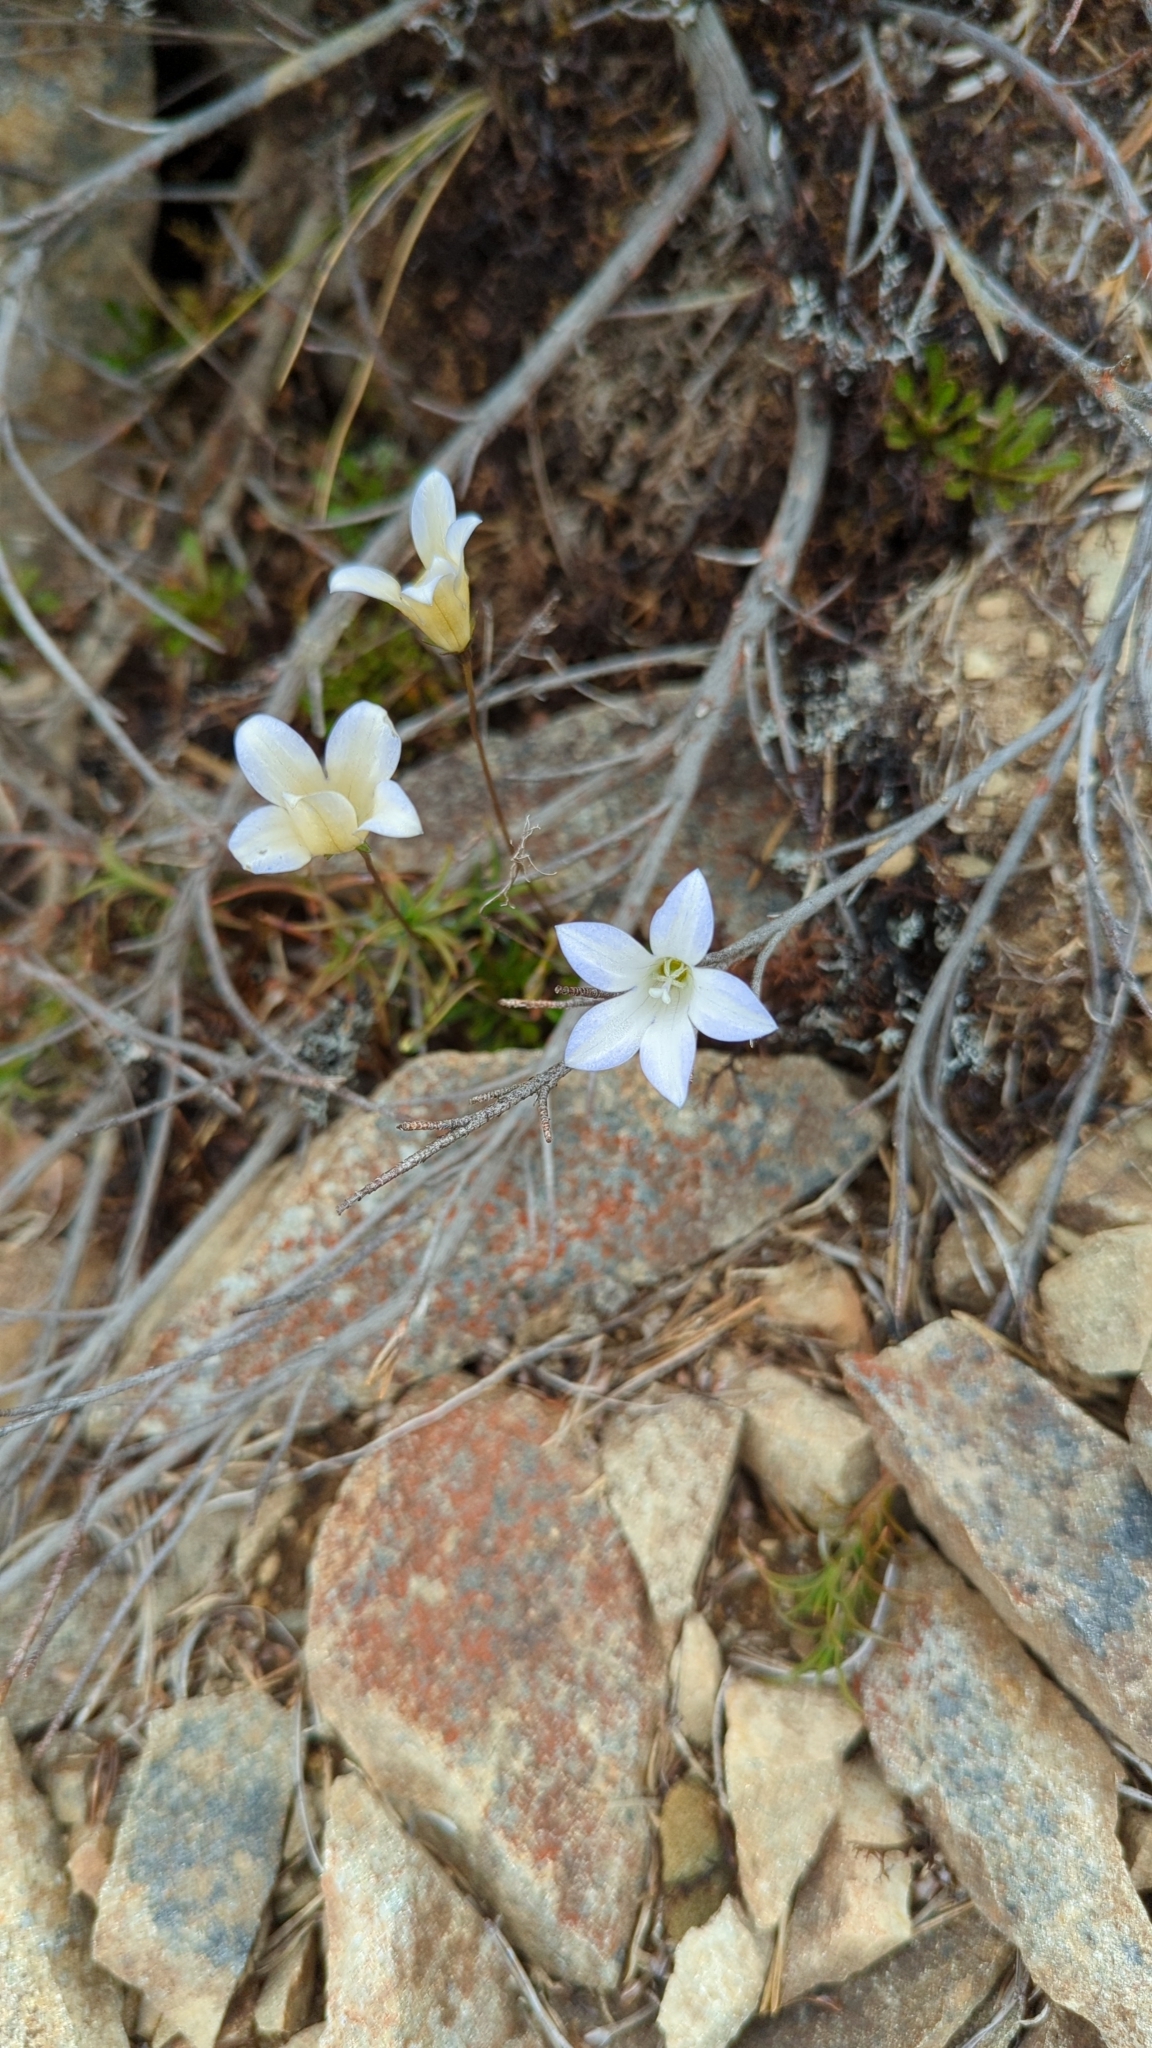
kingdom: Plantae
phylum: Tracheophyta
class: Magnoliopsida
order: Asterales
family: Campanulaceae
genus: Wahlenbergia
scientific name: Wahlenbergia albomarginata
